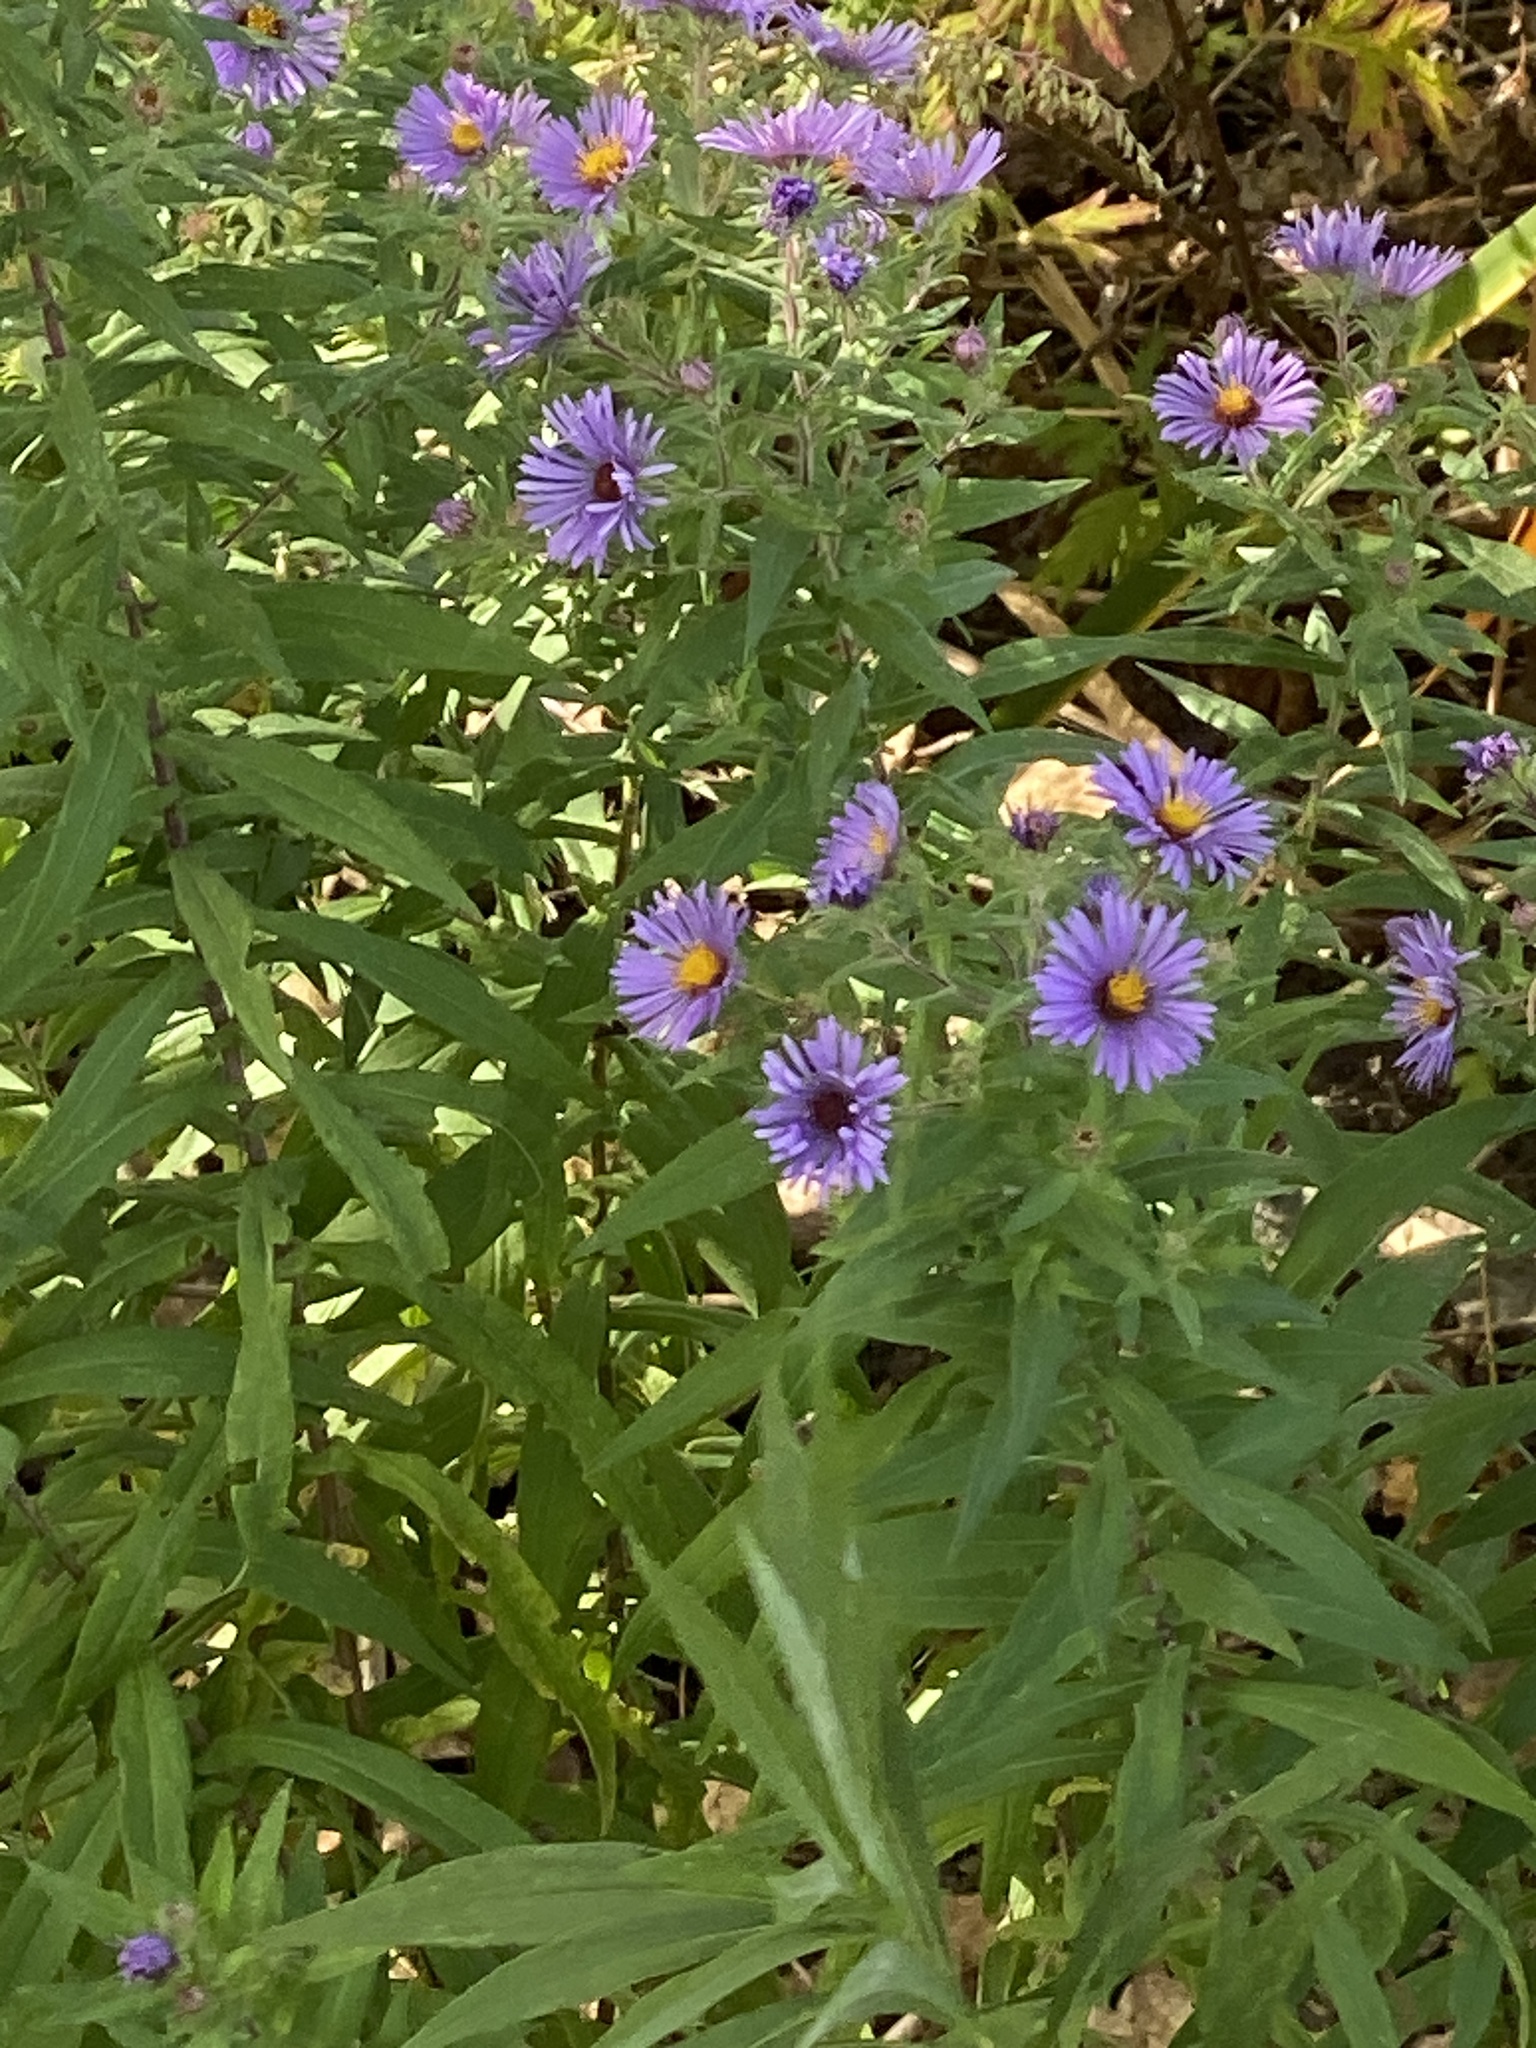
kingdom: Plantae
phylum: Tracheophyta
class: Magnoliopsida
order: Asterales
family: Asteraceae
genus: Symphyotrichum
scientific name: Symphyotrichum novae-angliae
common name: Michaelmas daisy
